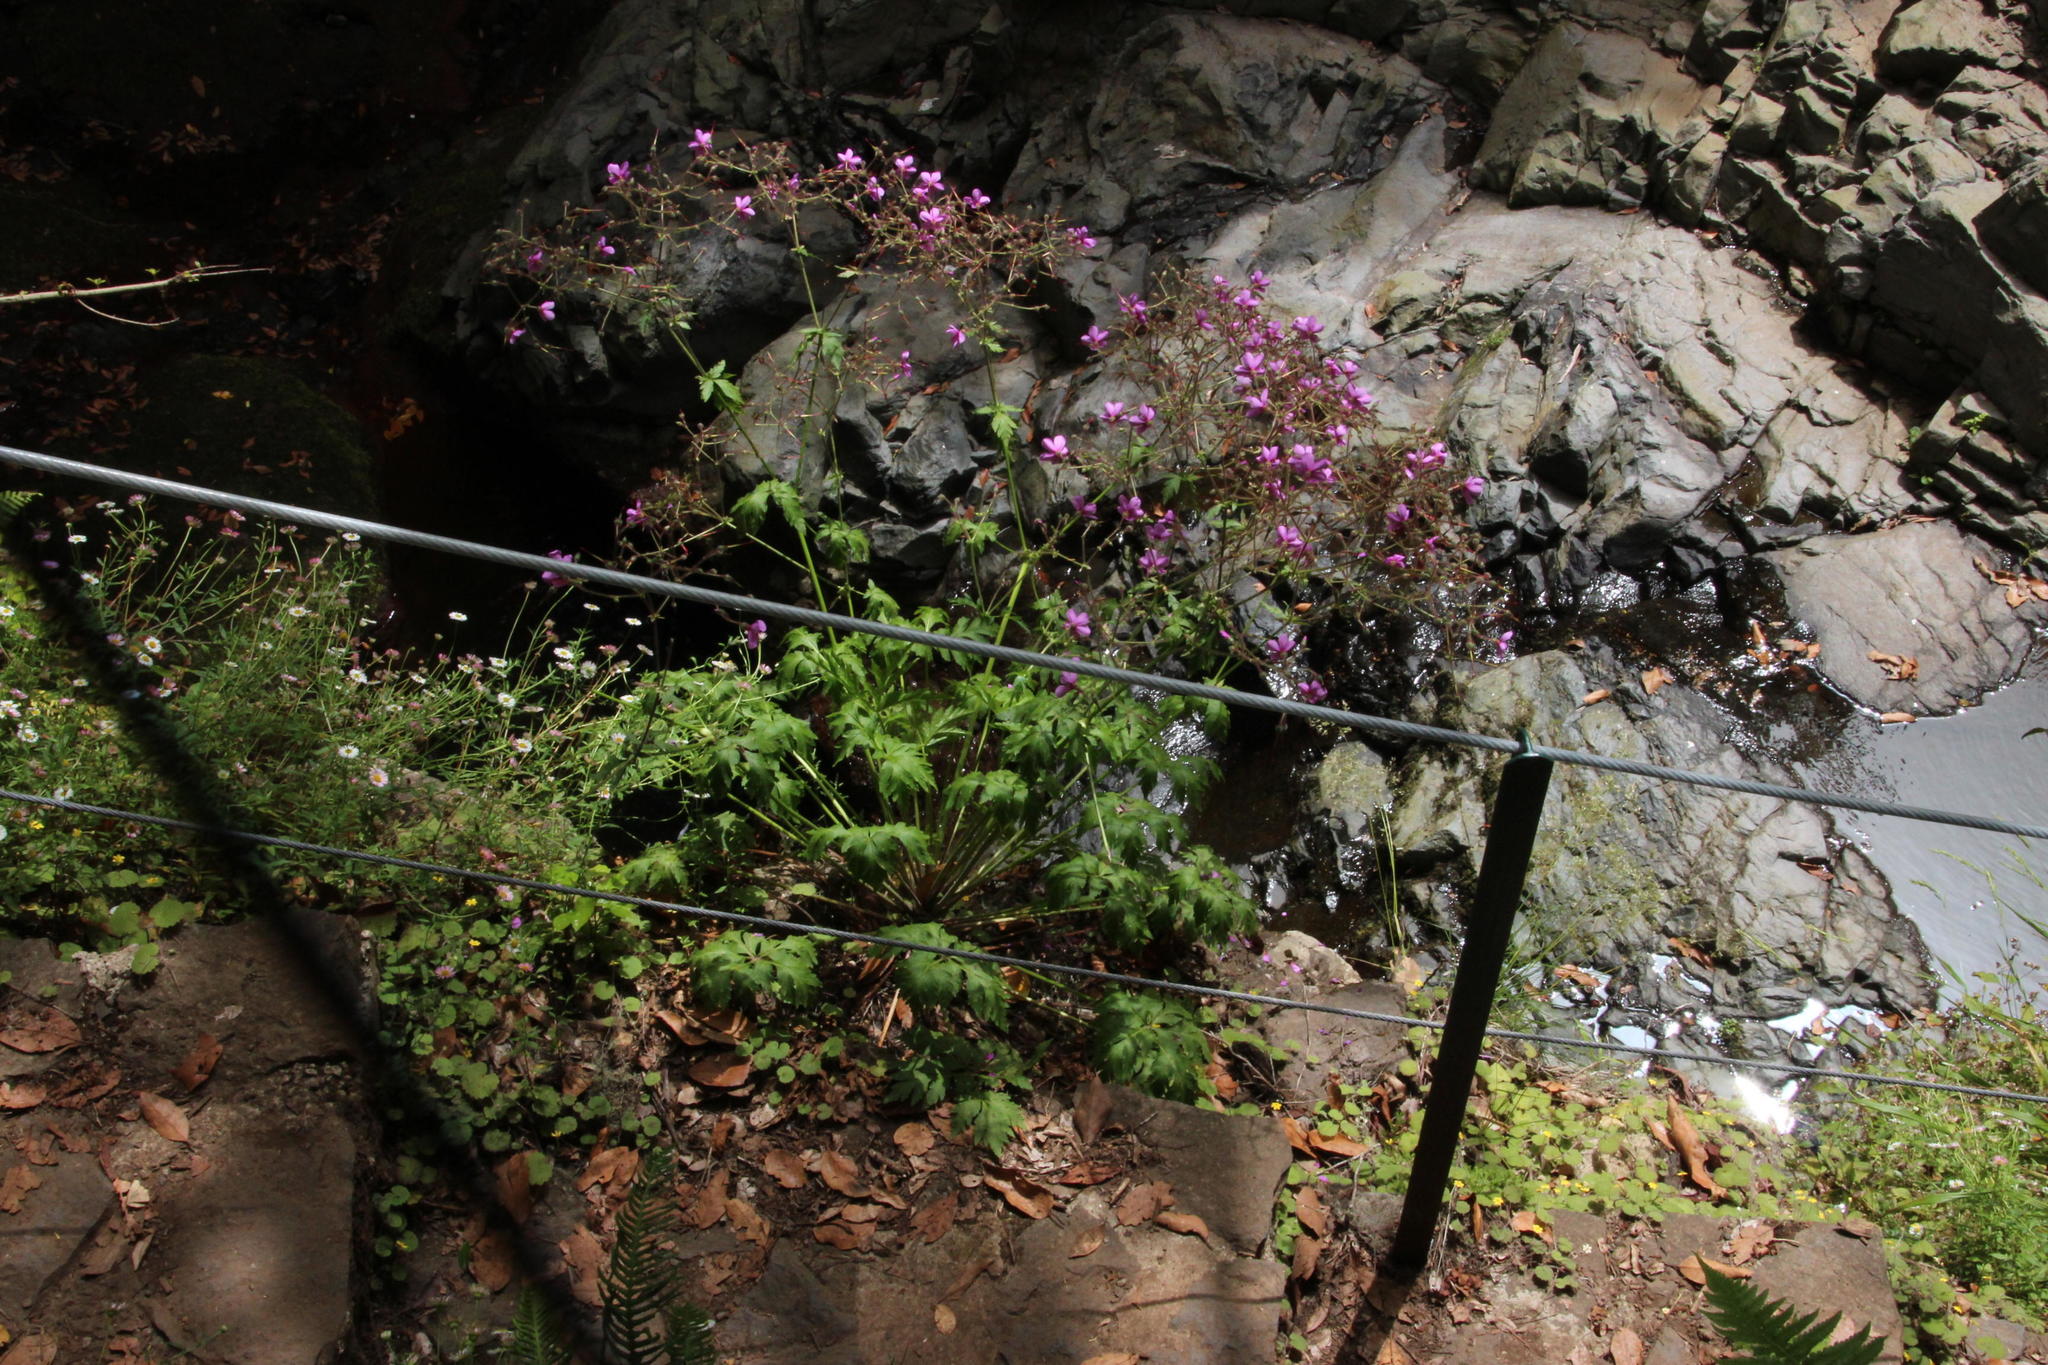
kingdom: Plantae
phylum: Tracheophyta
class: Magnoliopsida
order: Geraniales
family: Geraniaceae
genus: Geranium
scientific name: Geranium palmatum
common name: Canary island geranium
